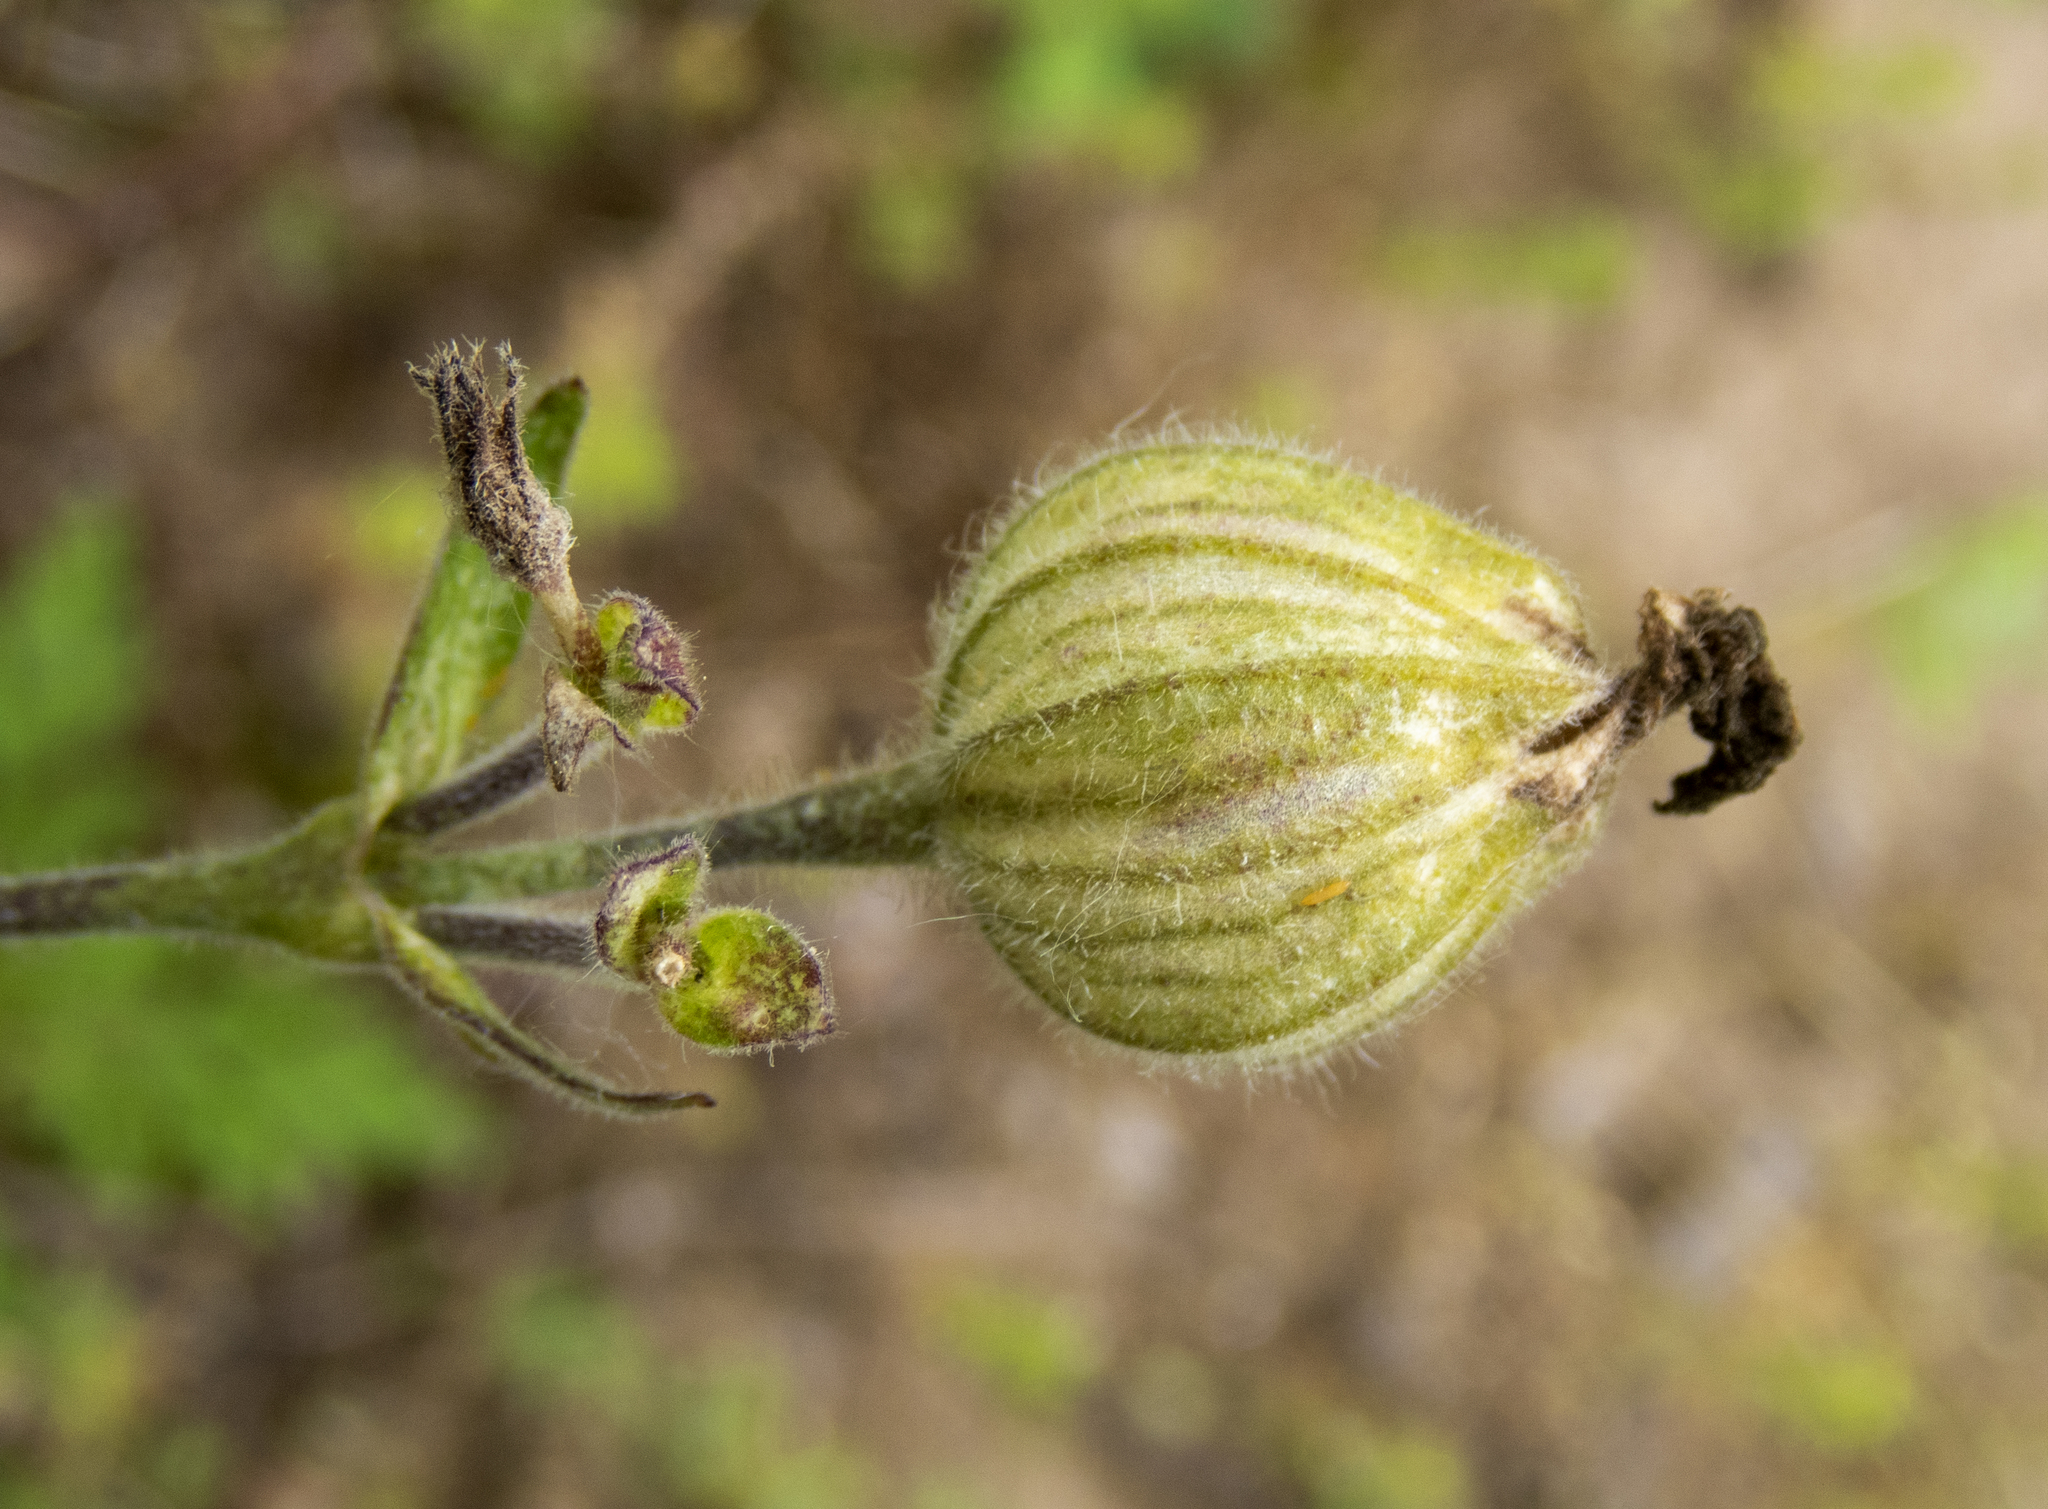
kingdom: Plantae
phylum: Tracheophyta
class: Magnoliopsida
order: Caryophyllales
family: Caryophyllaceae
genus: Silene
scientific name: Silene latifolia
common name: White campion
